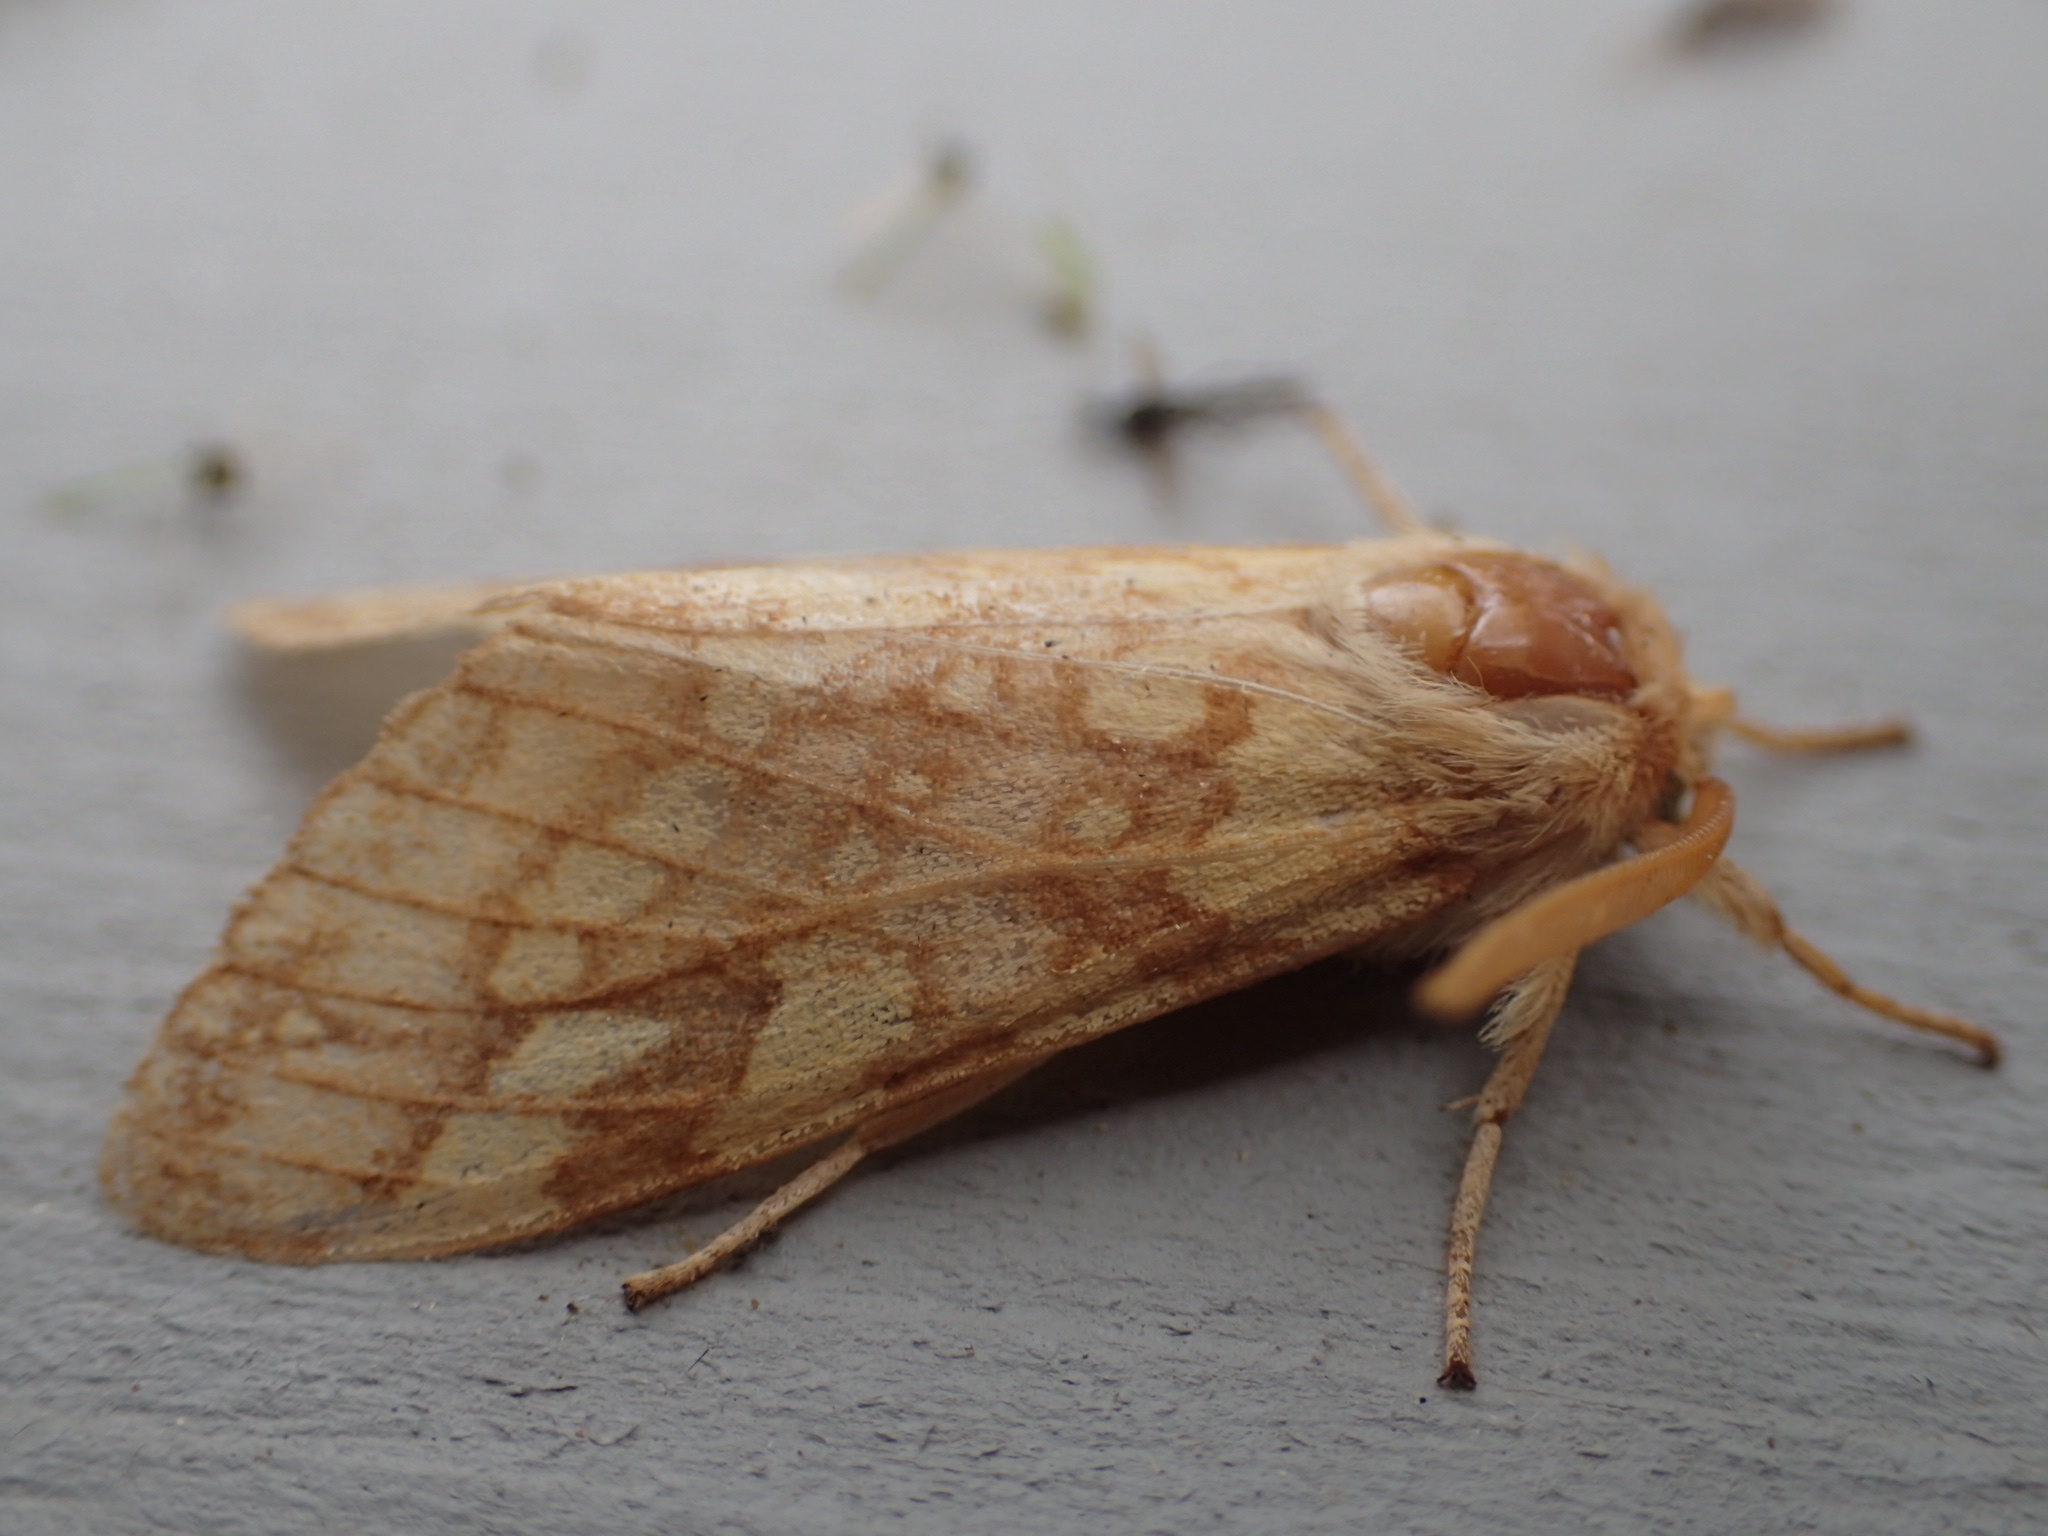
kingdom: Animalia
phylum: Arthropoda
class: Insecta
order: Lepidoptera
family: Erebidae
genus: Lophocampa
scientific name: Lophocampa maculata
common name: Spotted tussock moth
